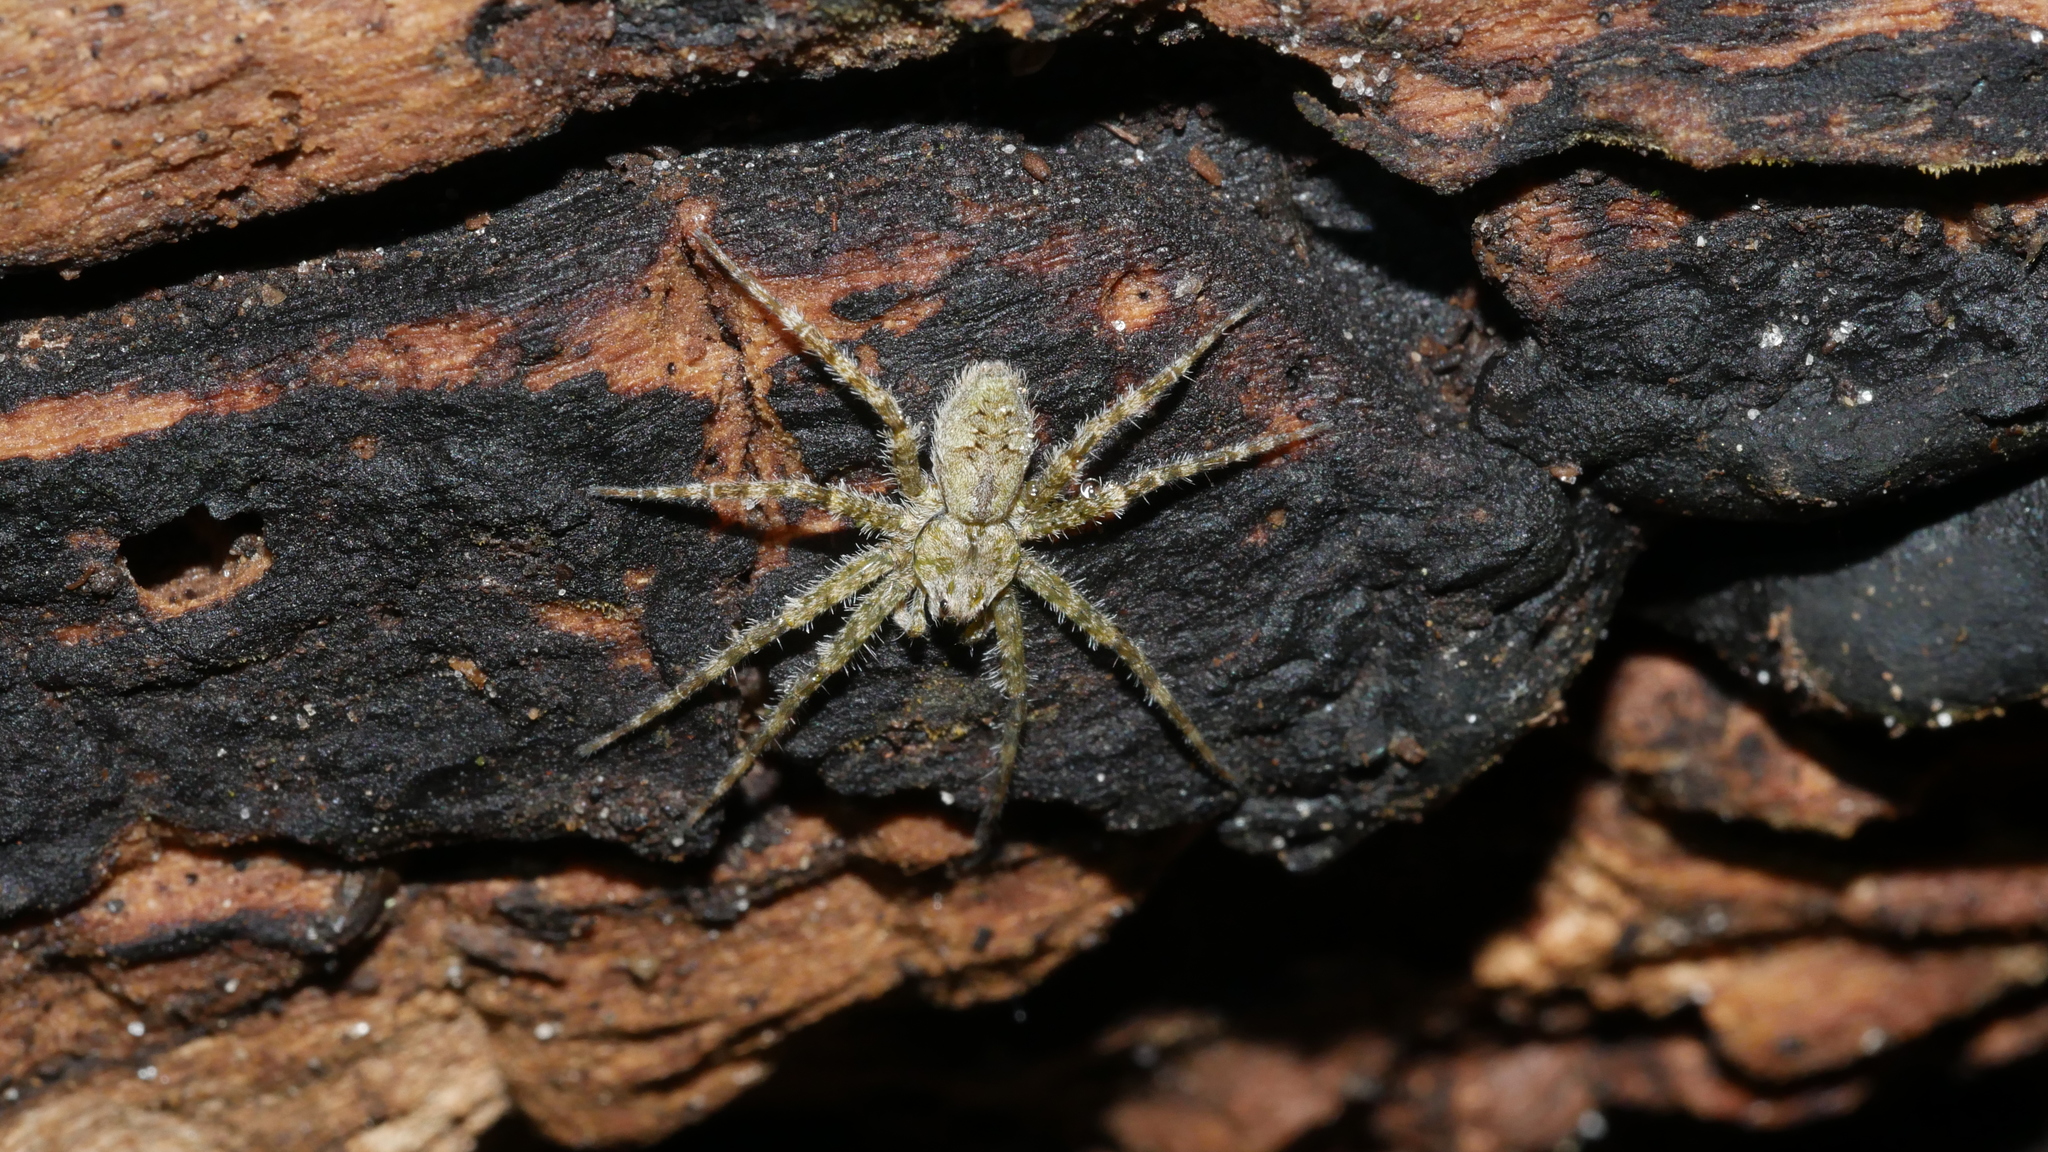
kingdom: Animalia
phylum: Arthropoda
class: Arachnida
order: Araneae
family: Pisauridae
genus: Dolomedes
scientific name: Dolomedes albineus
